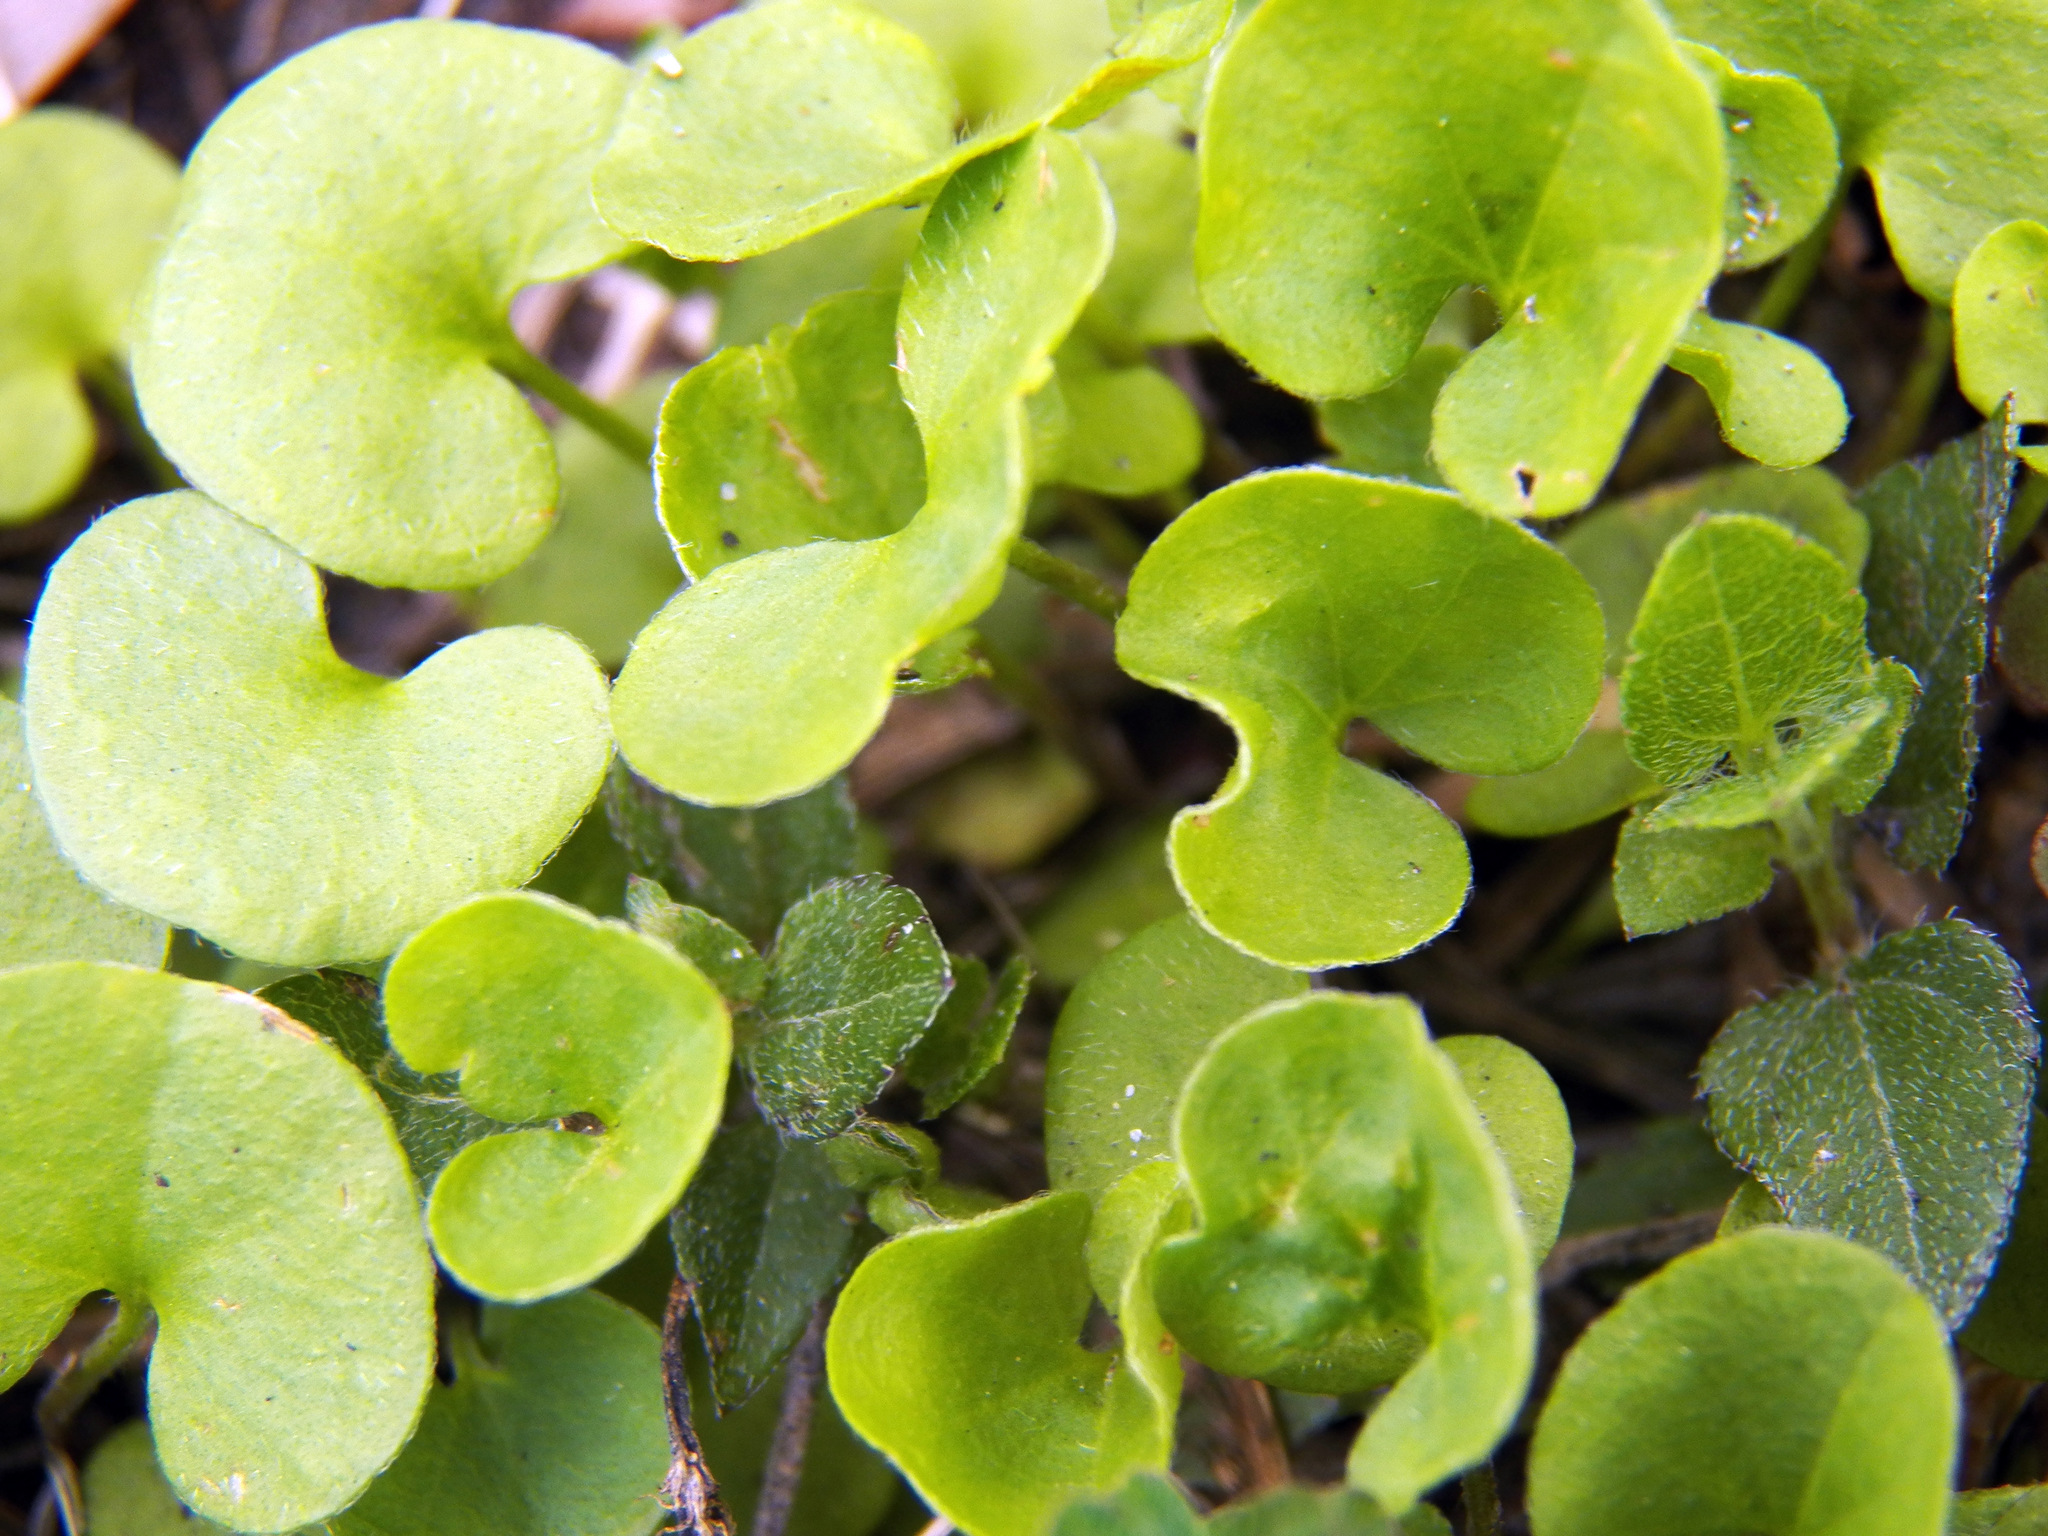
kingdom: Plantae
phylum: Tracheophyta
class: Magnoliopsida
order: Solanales
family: Convolvulaceae
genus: Dichondra
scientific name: Dichondra carolinensis
